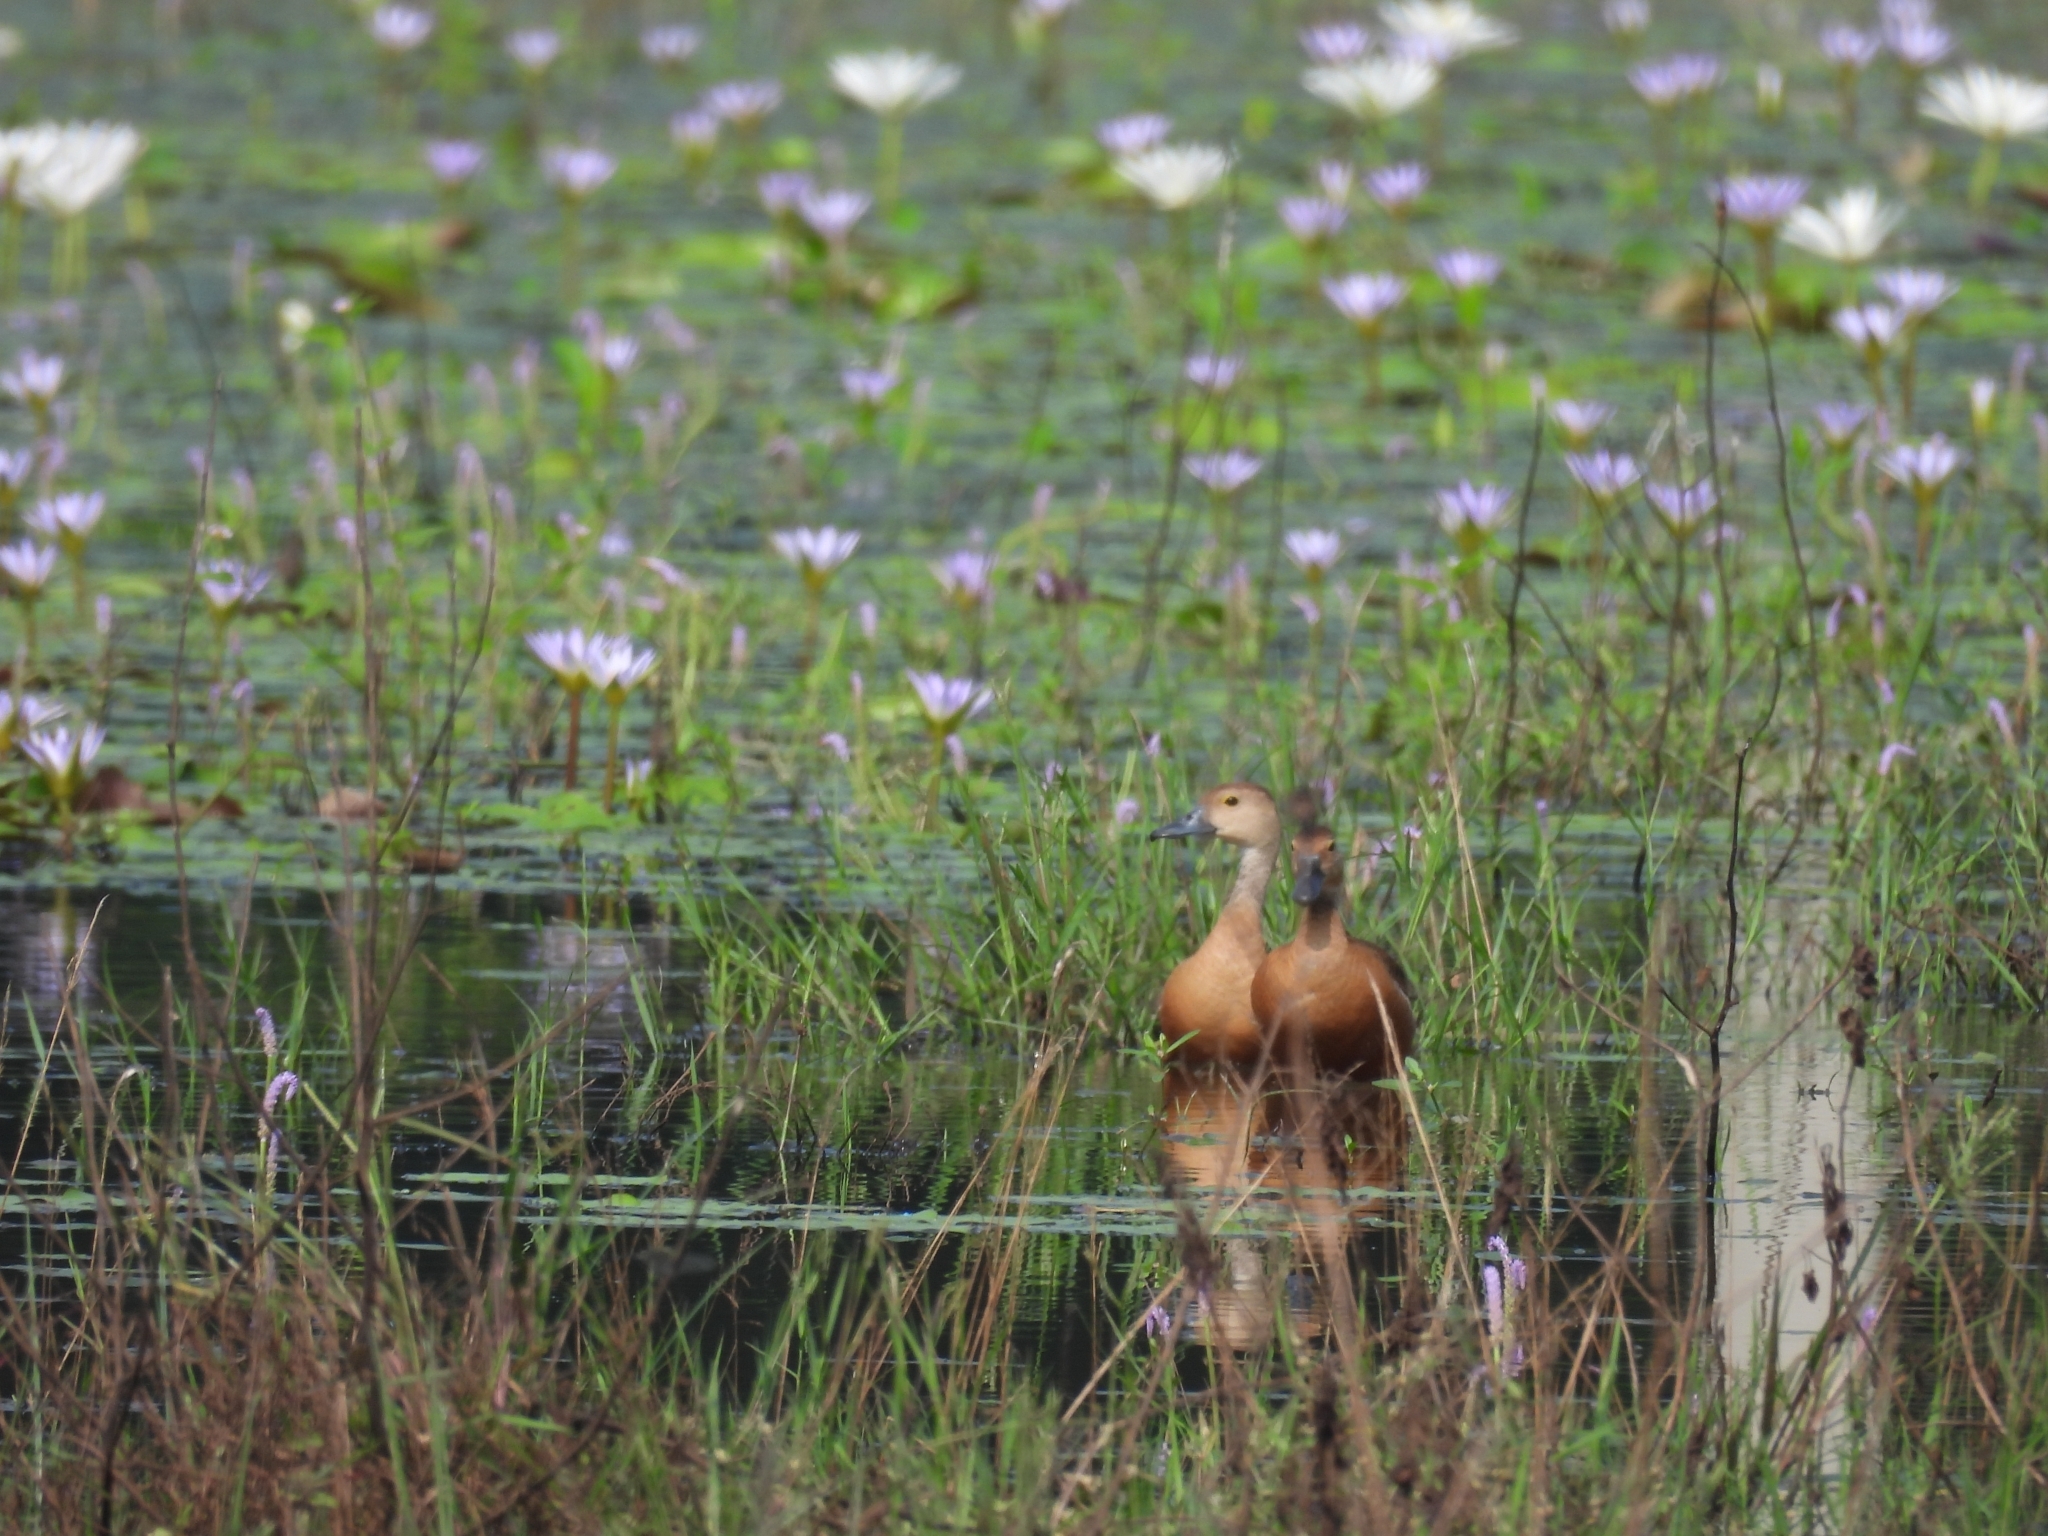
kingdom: Animalia
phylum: Chordata
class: Aves
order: Anseriformes
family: Anatidae
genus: Dendrocygna
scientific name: Dendrocygna javanica
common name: Lesser whistling-duck
